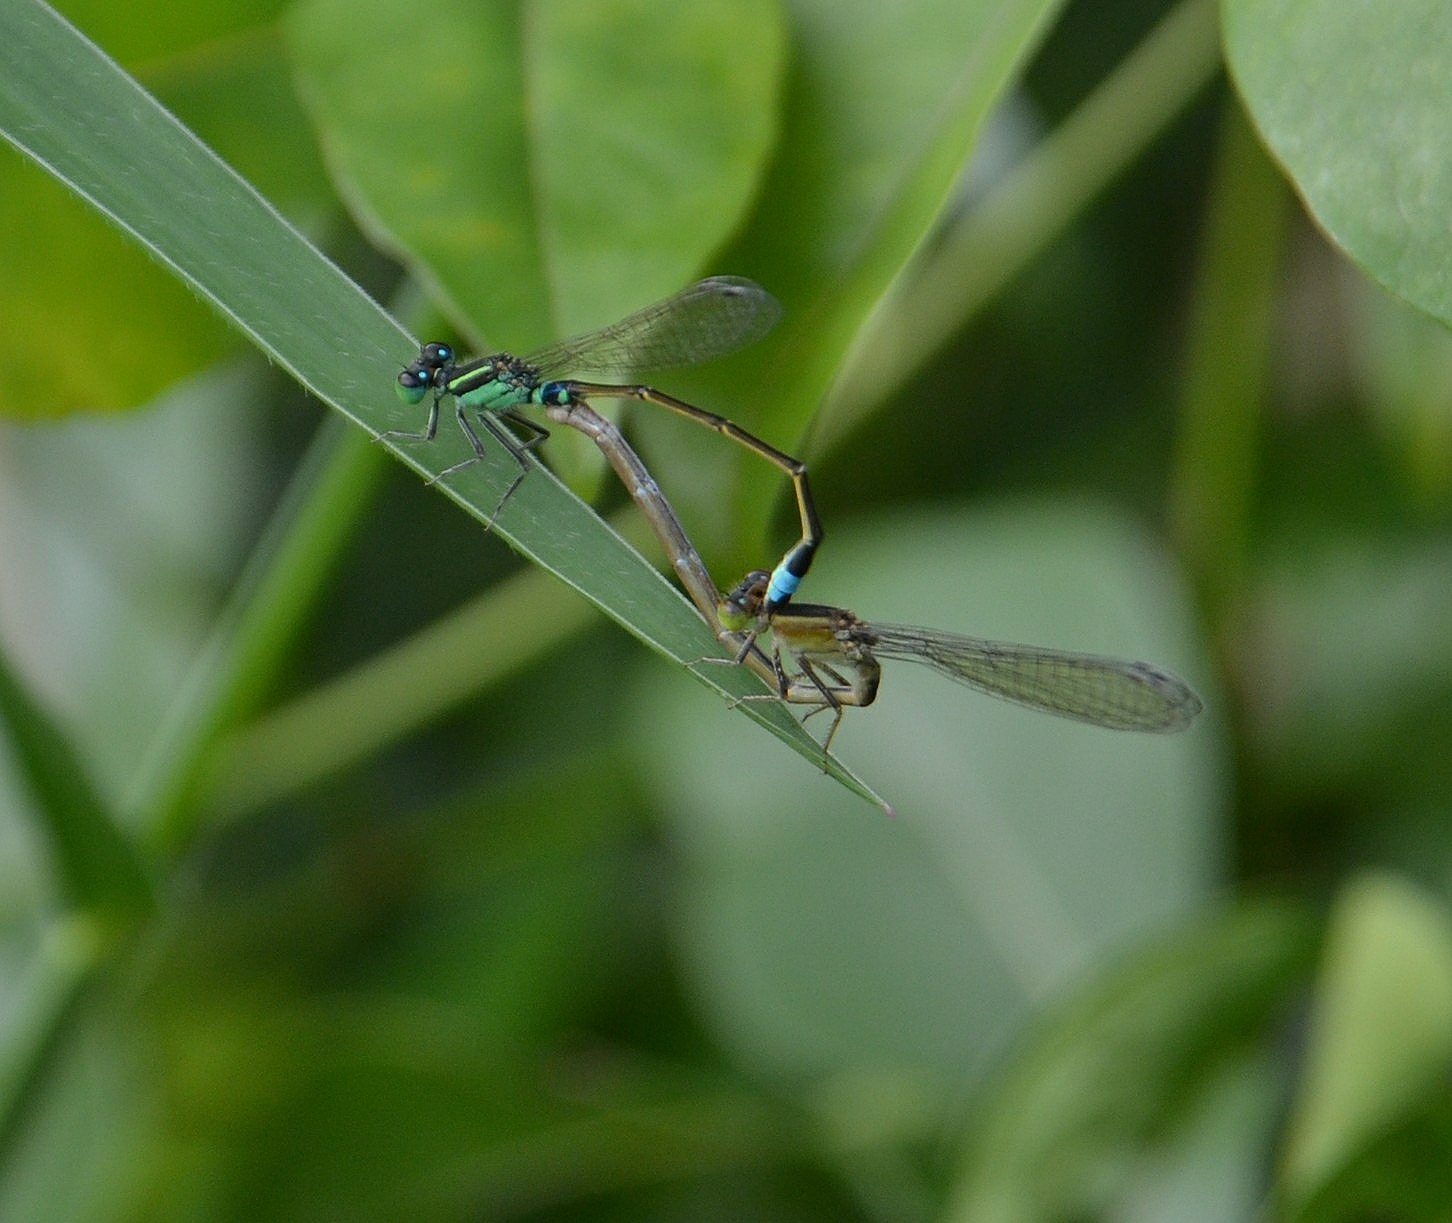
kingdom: Animalia
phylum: Arthropoda
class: Insecta
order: Odonata
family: Coenagrionidae
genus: Ischnura
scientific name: Ischnura senegalensis
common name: Tropical bluetail
